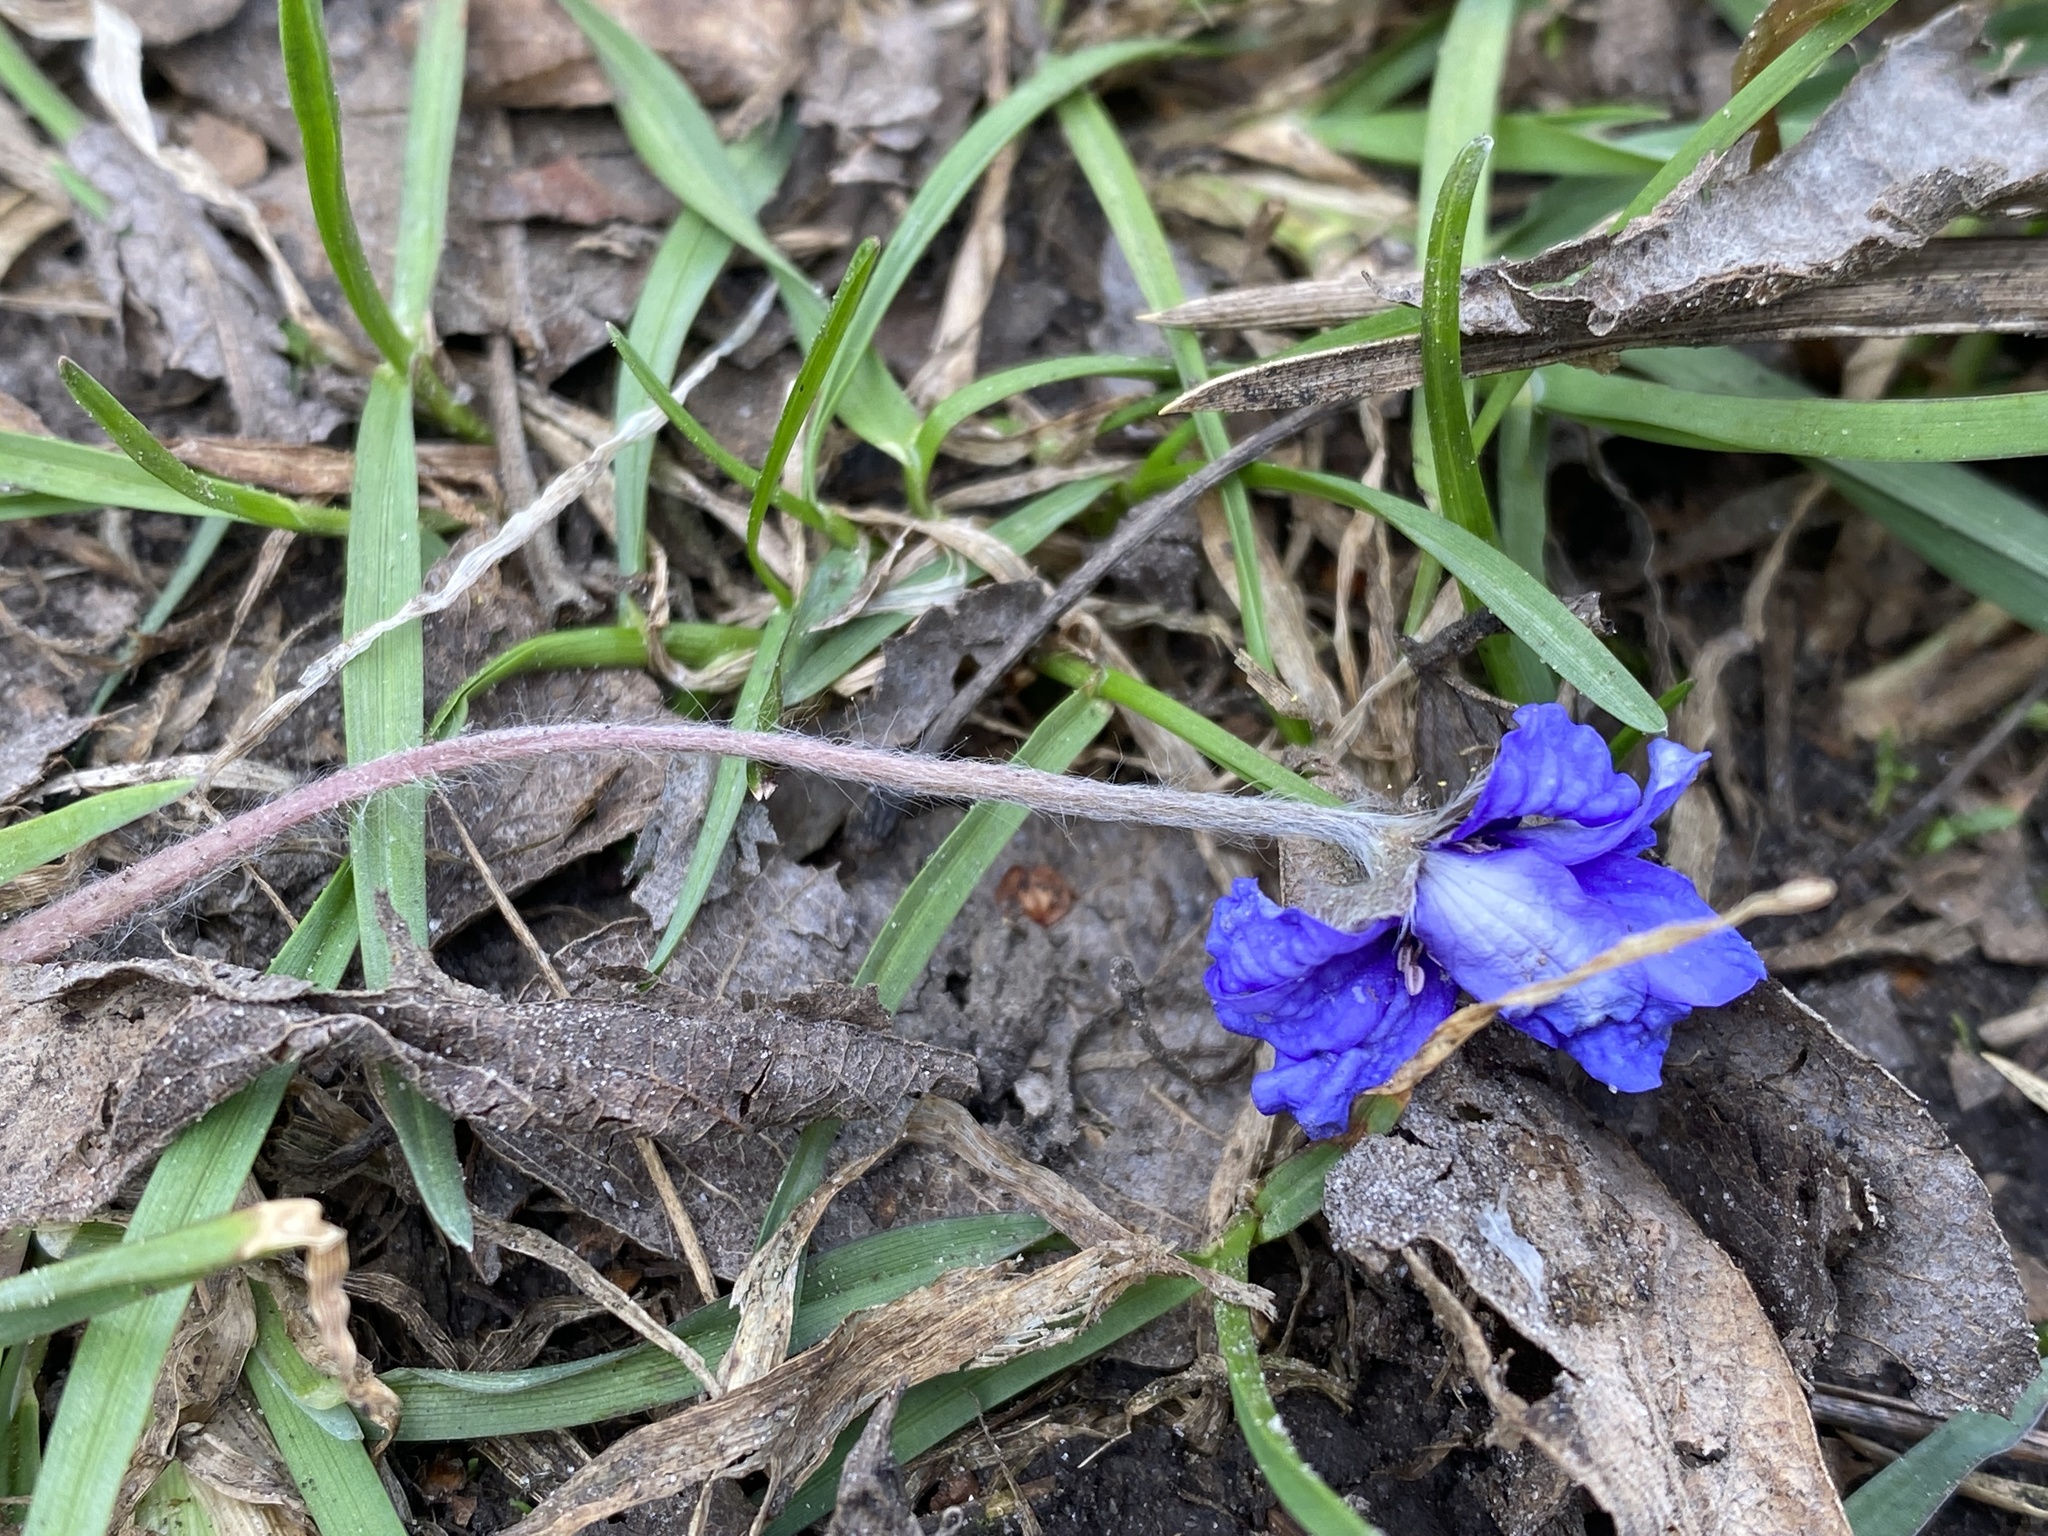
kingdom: Plantae
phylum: Tracheophyta
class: Magnoliopsida
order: Ranunculales
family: Ranunculaceae
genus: Hepatica
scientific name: Hepatica nobilis
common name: Liverleaf
